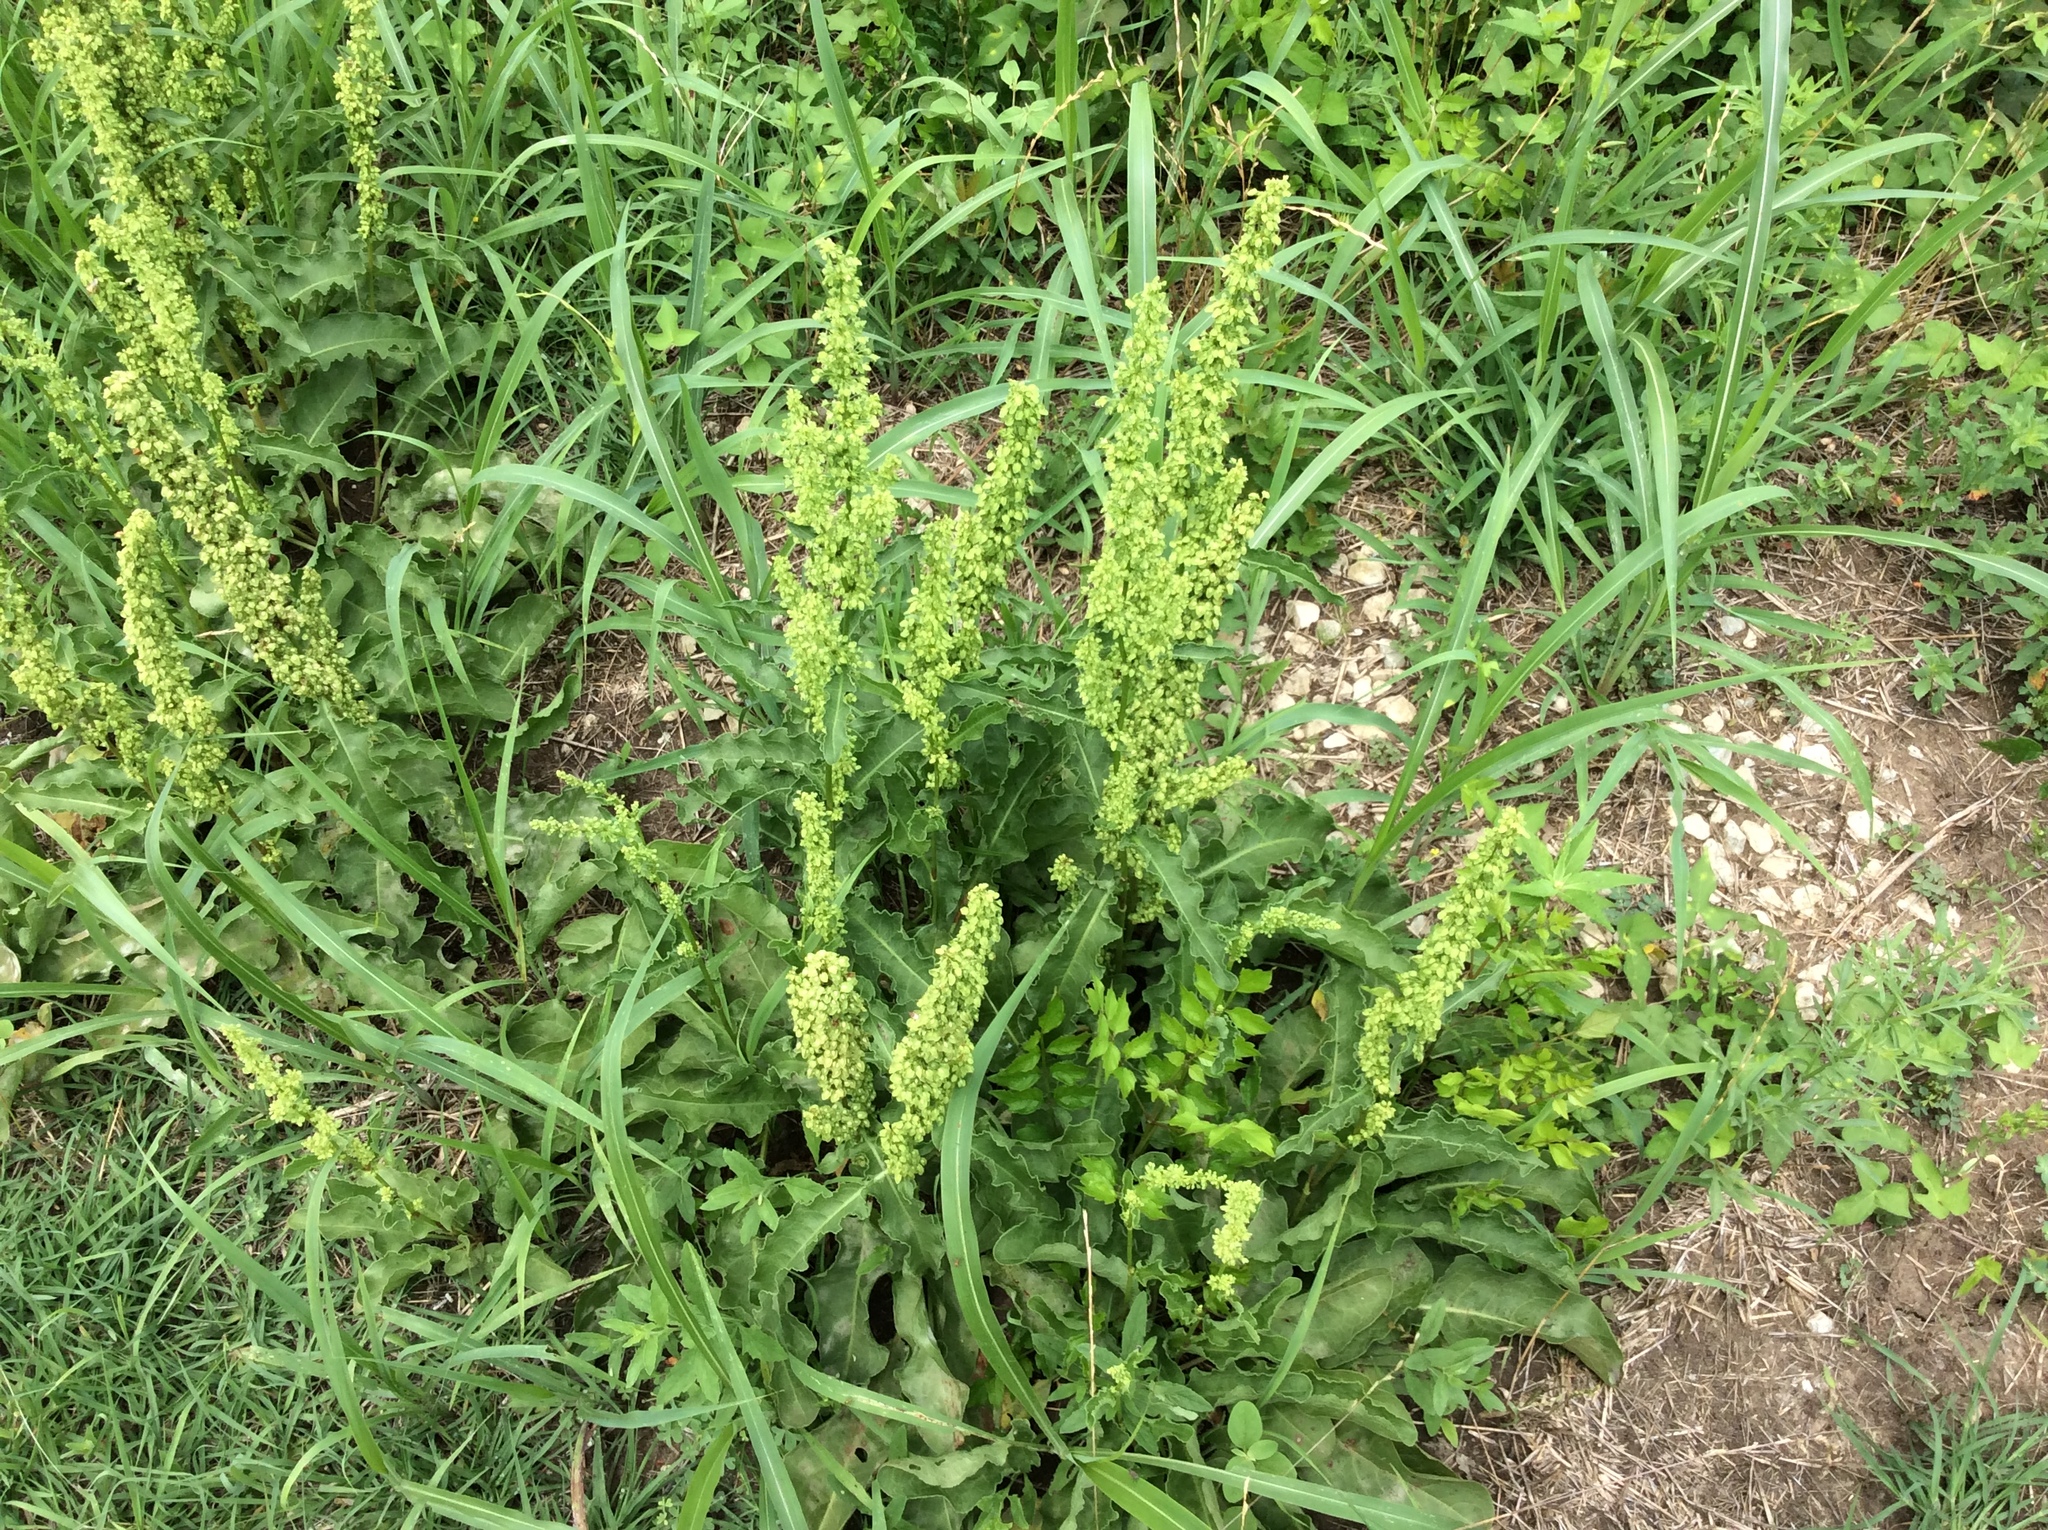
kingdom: Plantae
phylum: Tracheophyta
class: Magnoliopsida
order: Caryophyllales
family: Polygonaceae
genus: Rumex
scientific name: Rumex crispus
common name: Curled dock
